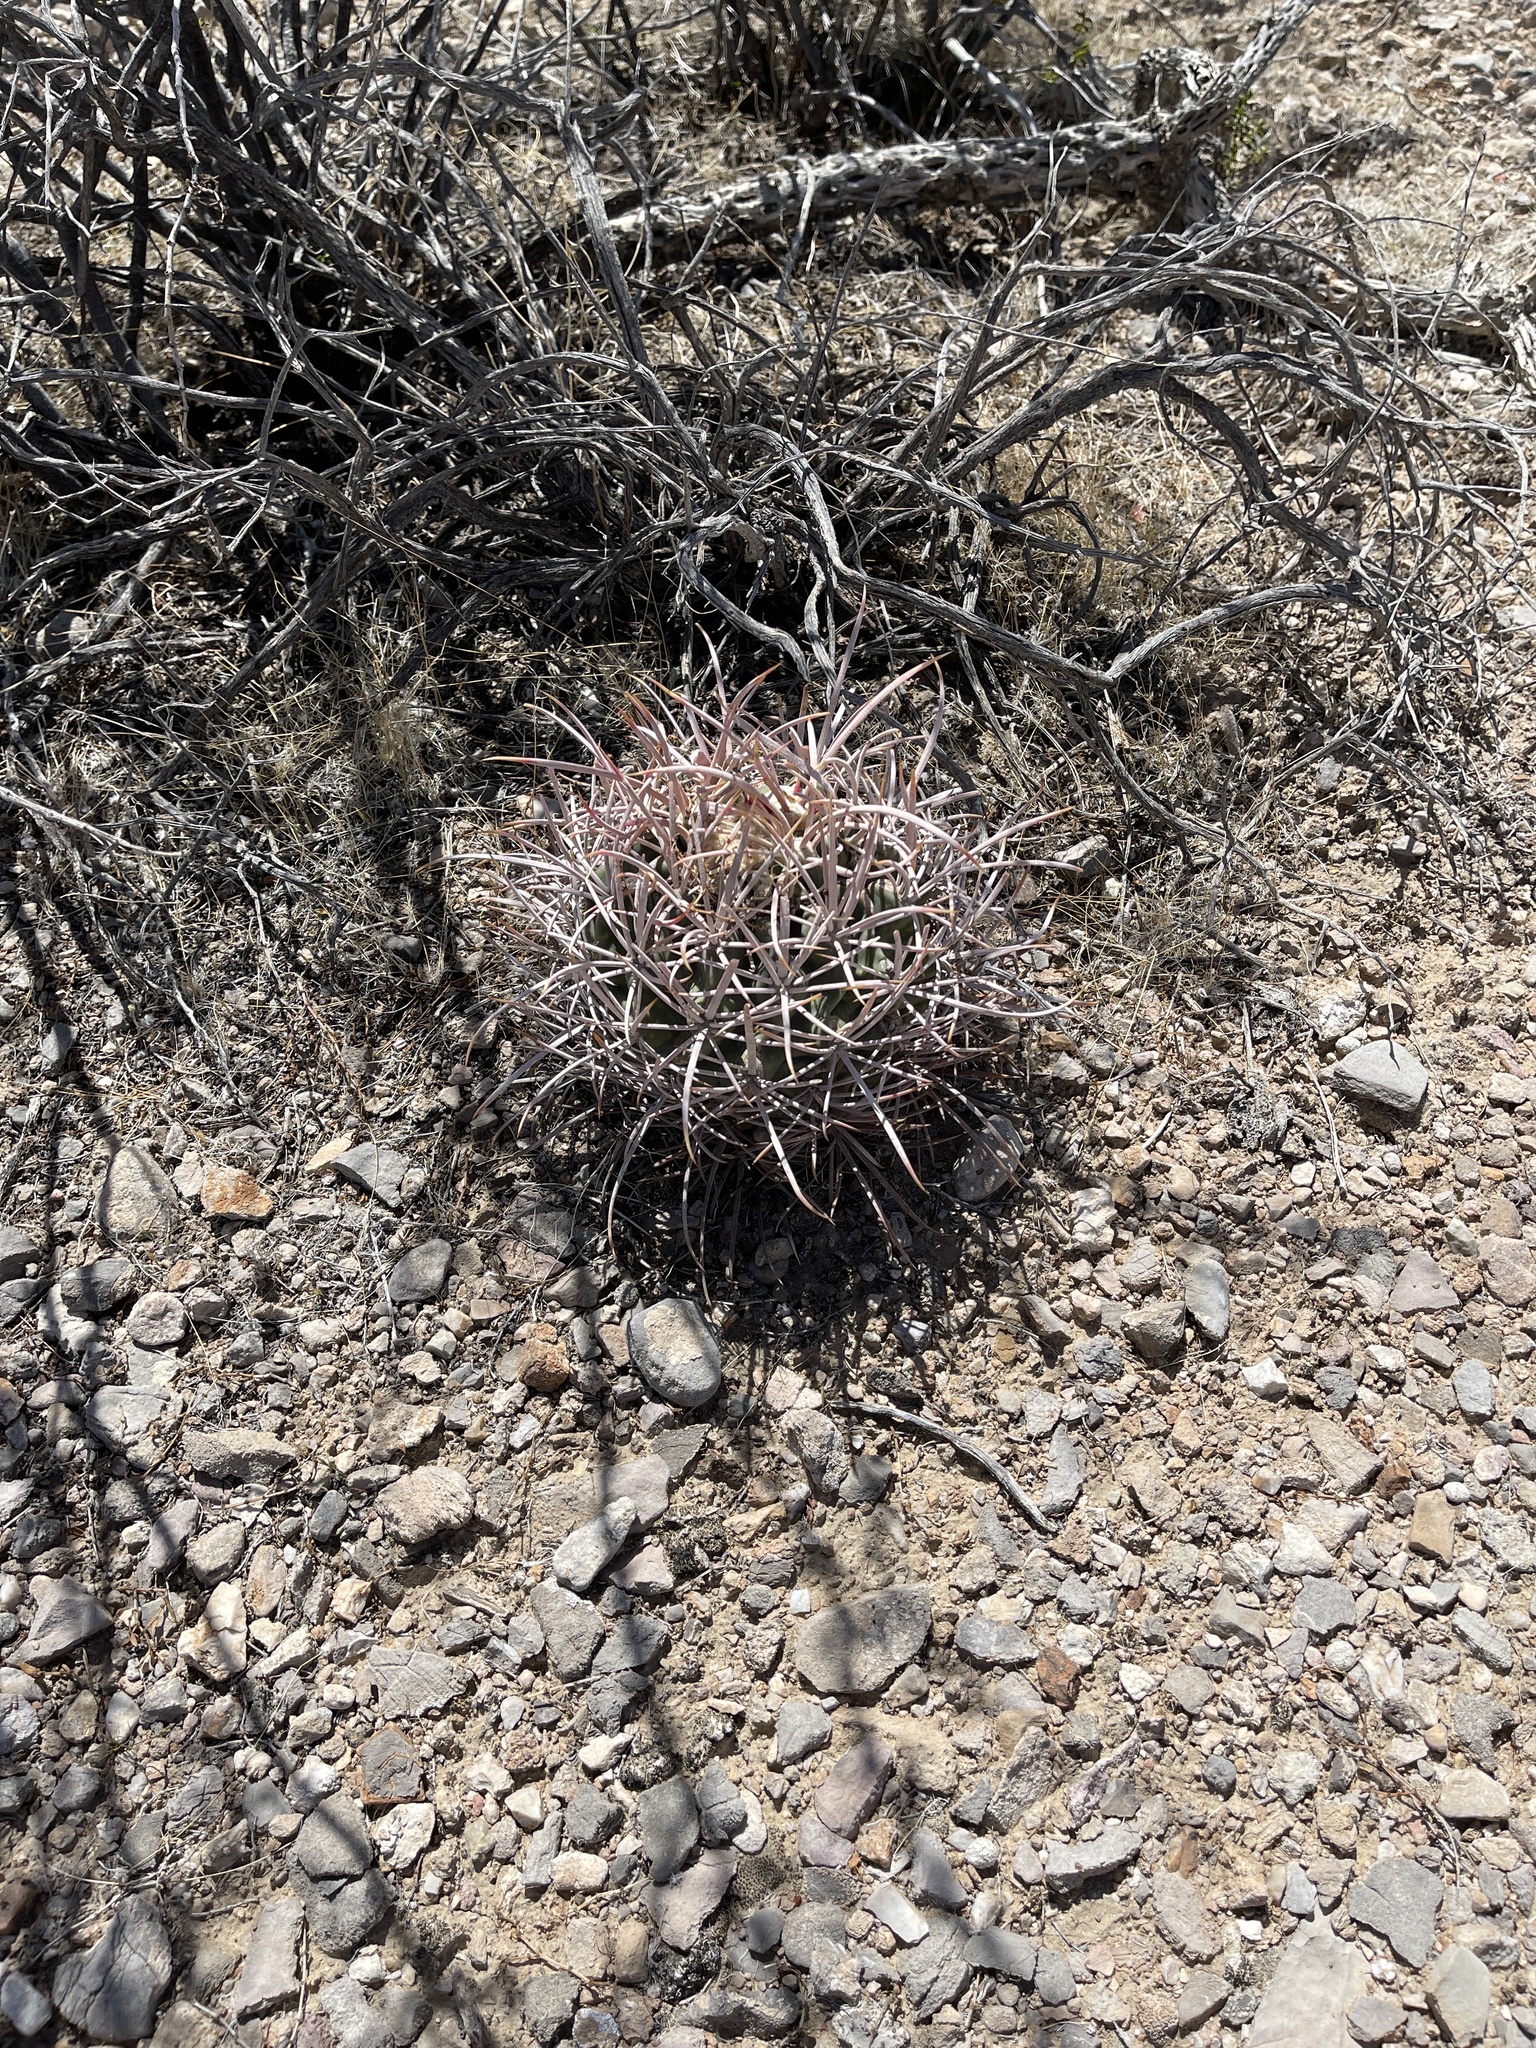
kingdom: Plantae
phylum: Tracheophyta
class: Magnoliopsida
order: Caryophyllales
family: Cactaceae
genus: Echinocactus
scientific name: Echinocactus polycephalus
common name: Cottontop cactus
